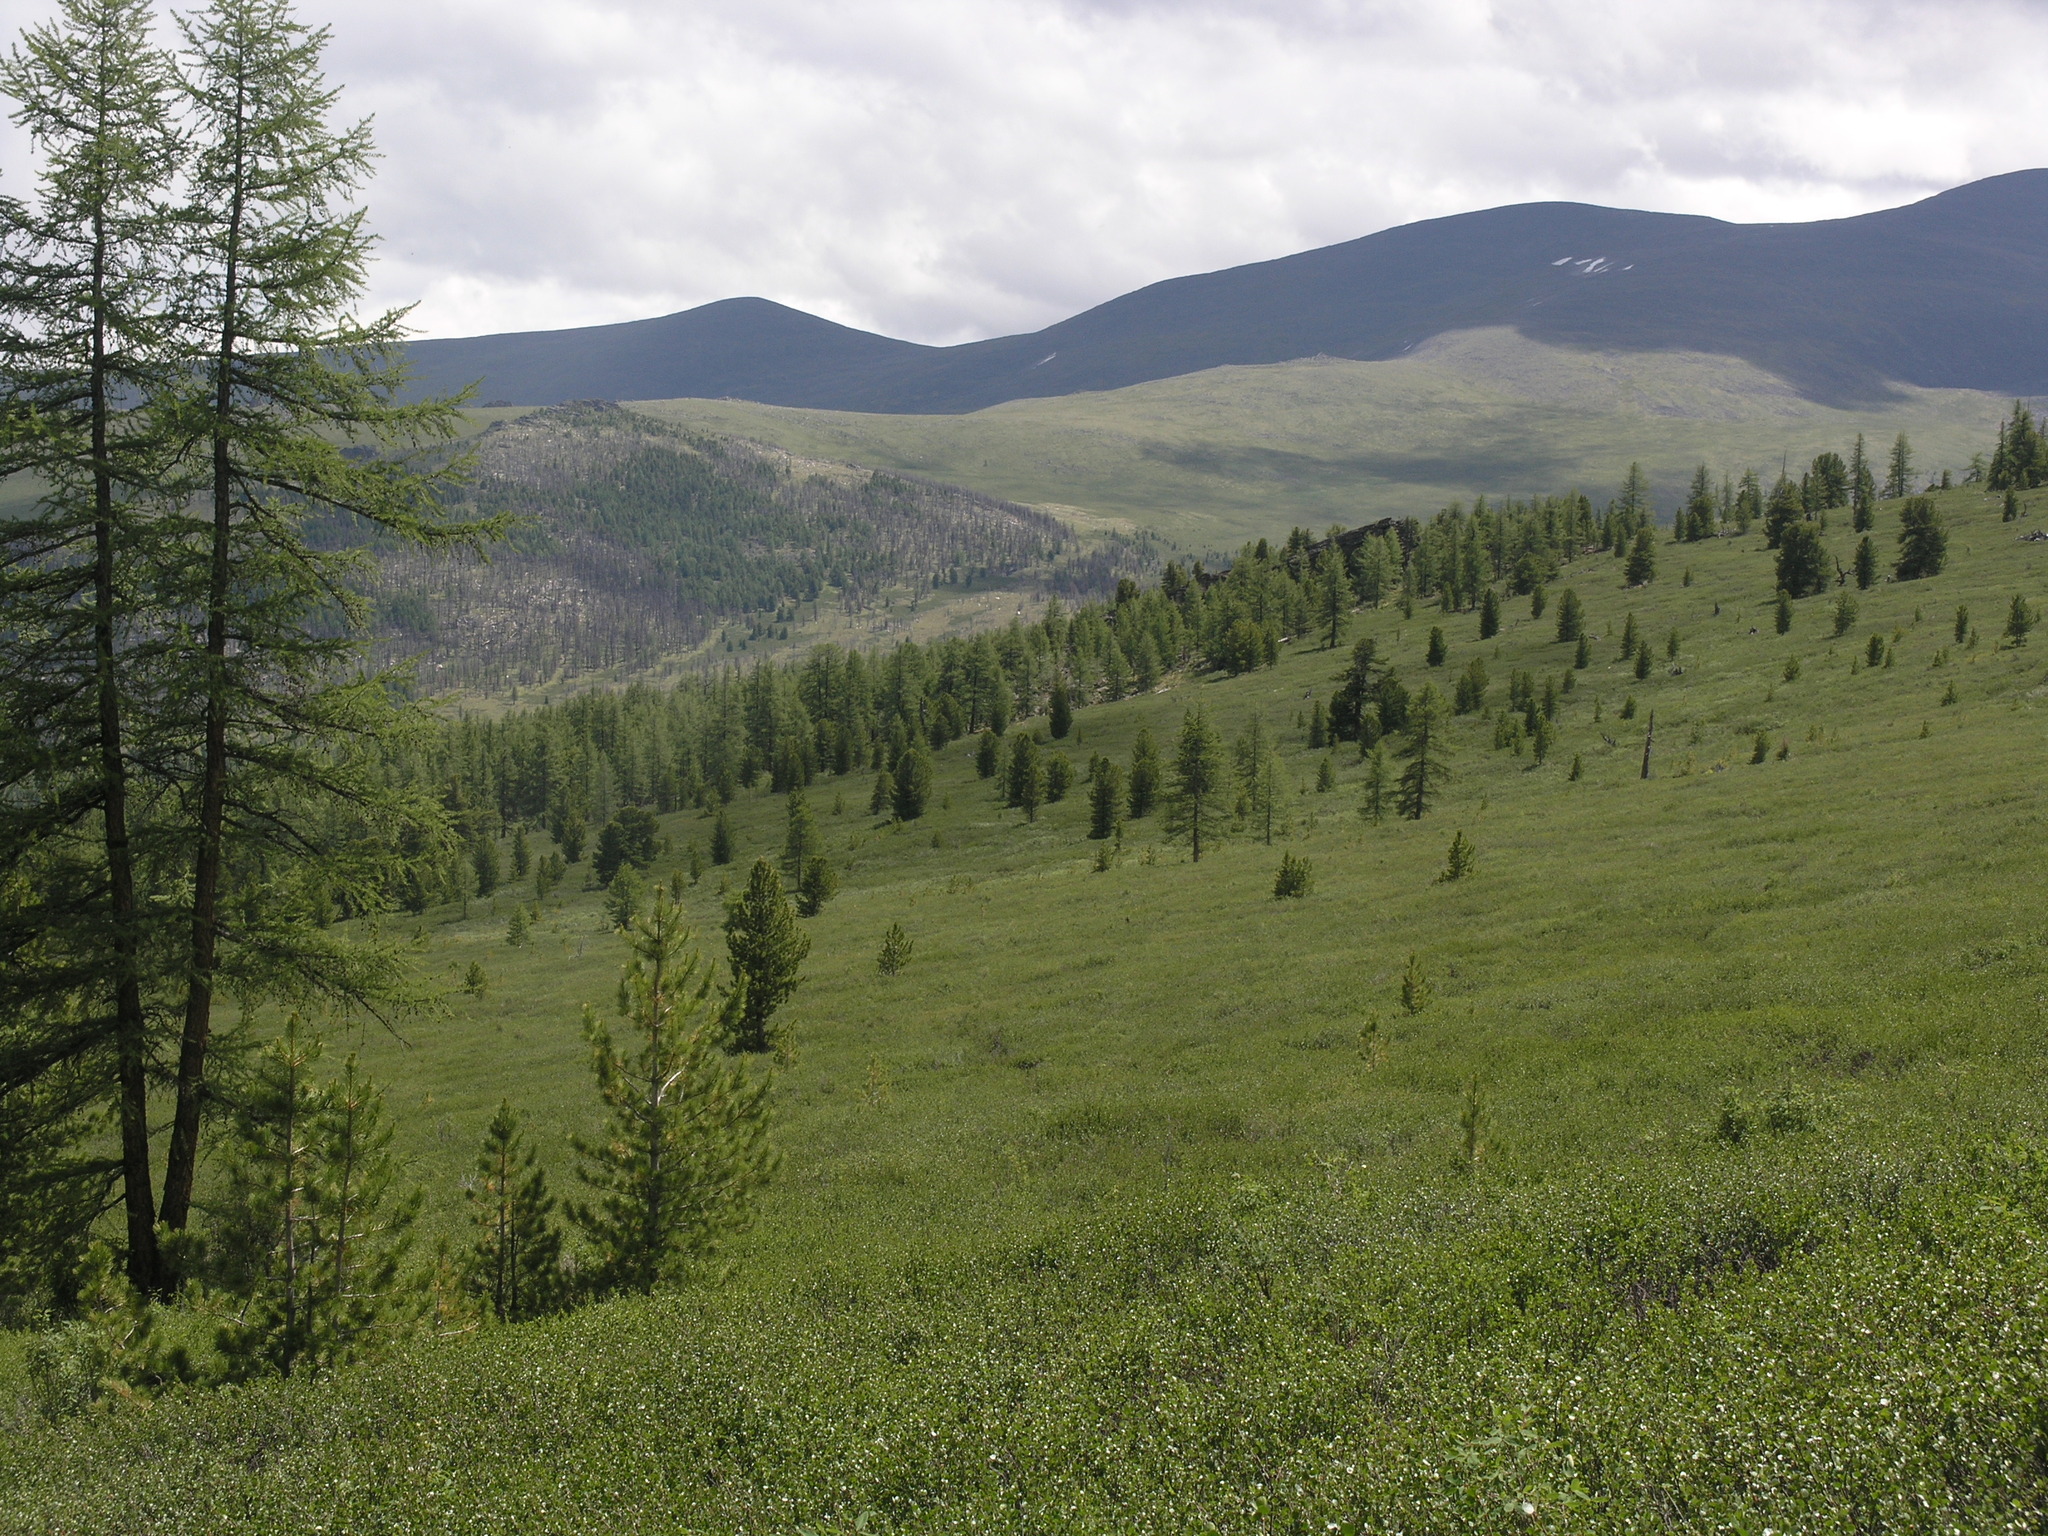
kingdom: Plantae
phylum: Tracheophyta
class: Pinopsida
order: Pinales
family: Pinaceae
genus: Larix
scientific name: Larix sibirica
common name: Siberian larch
